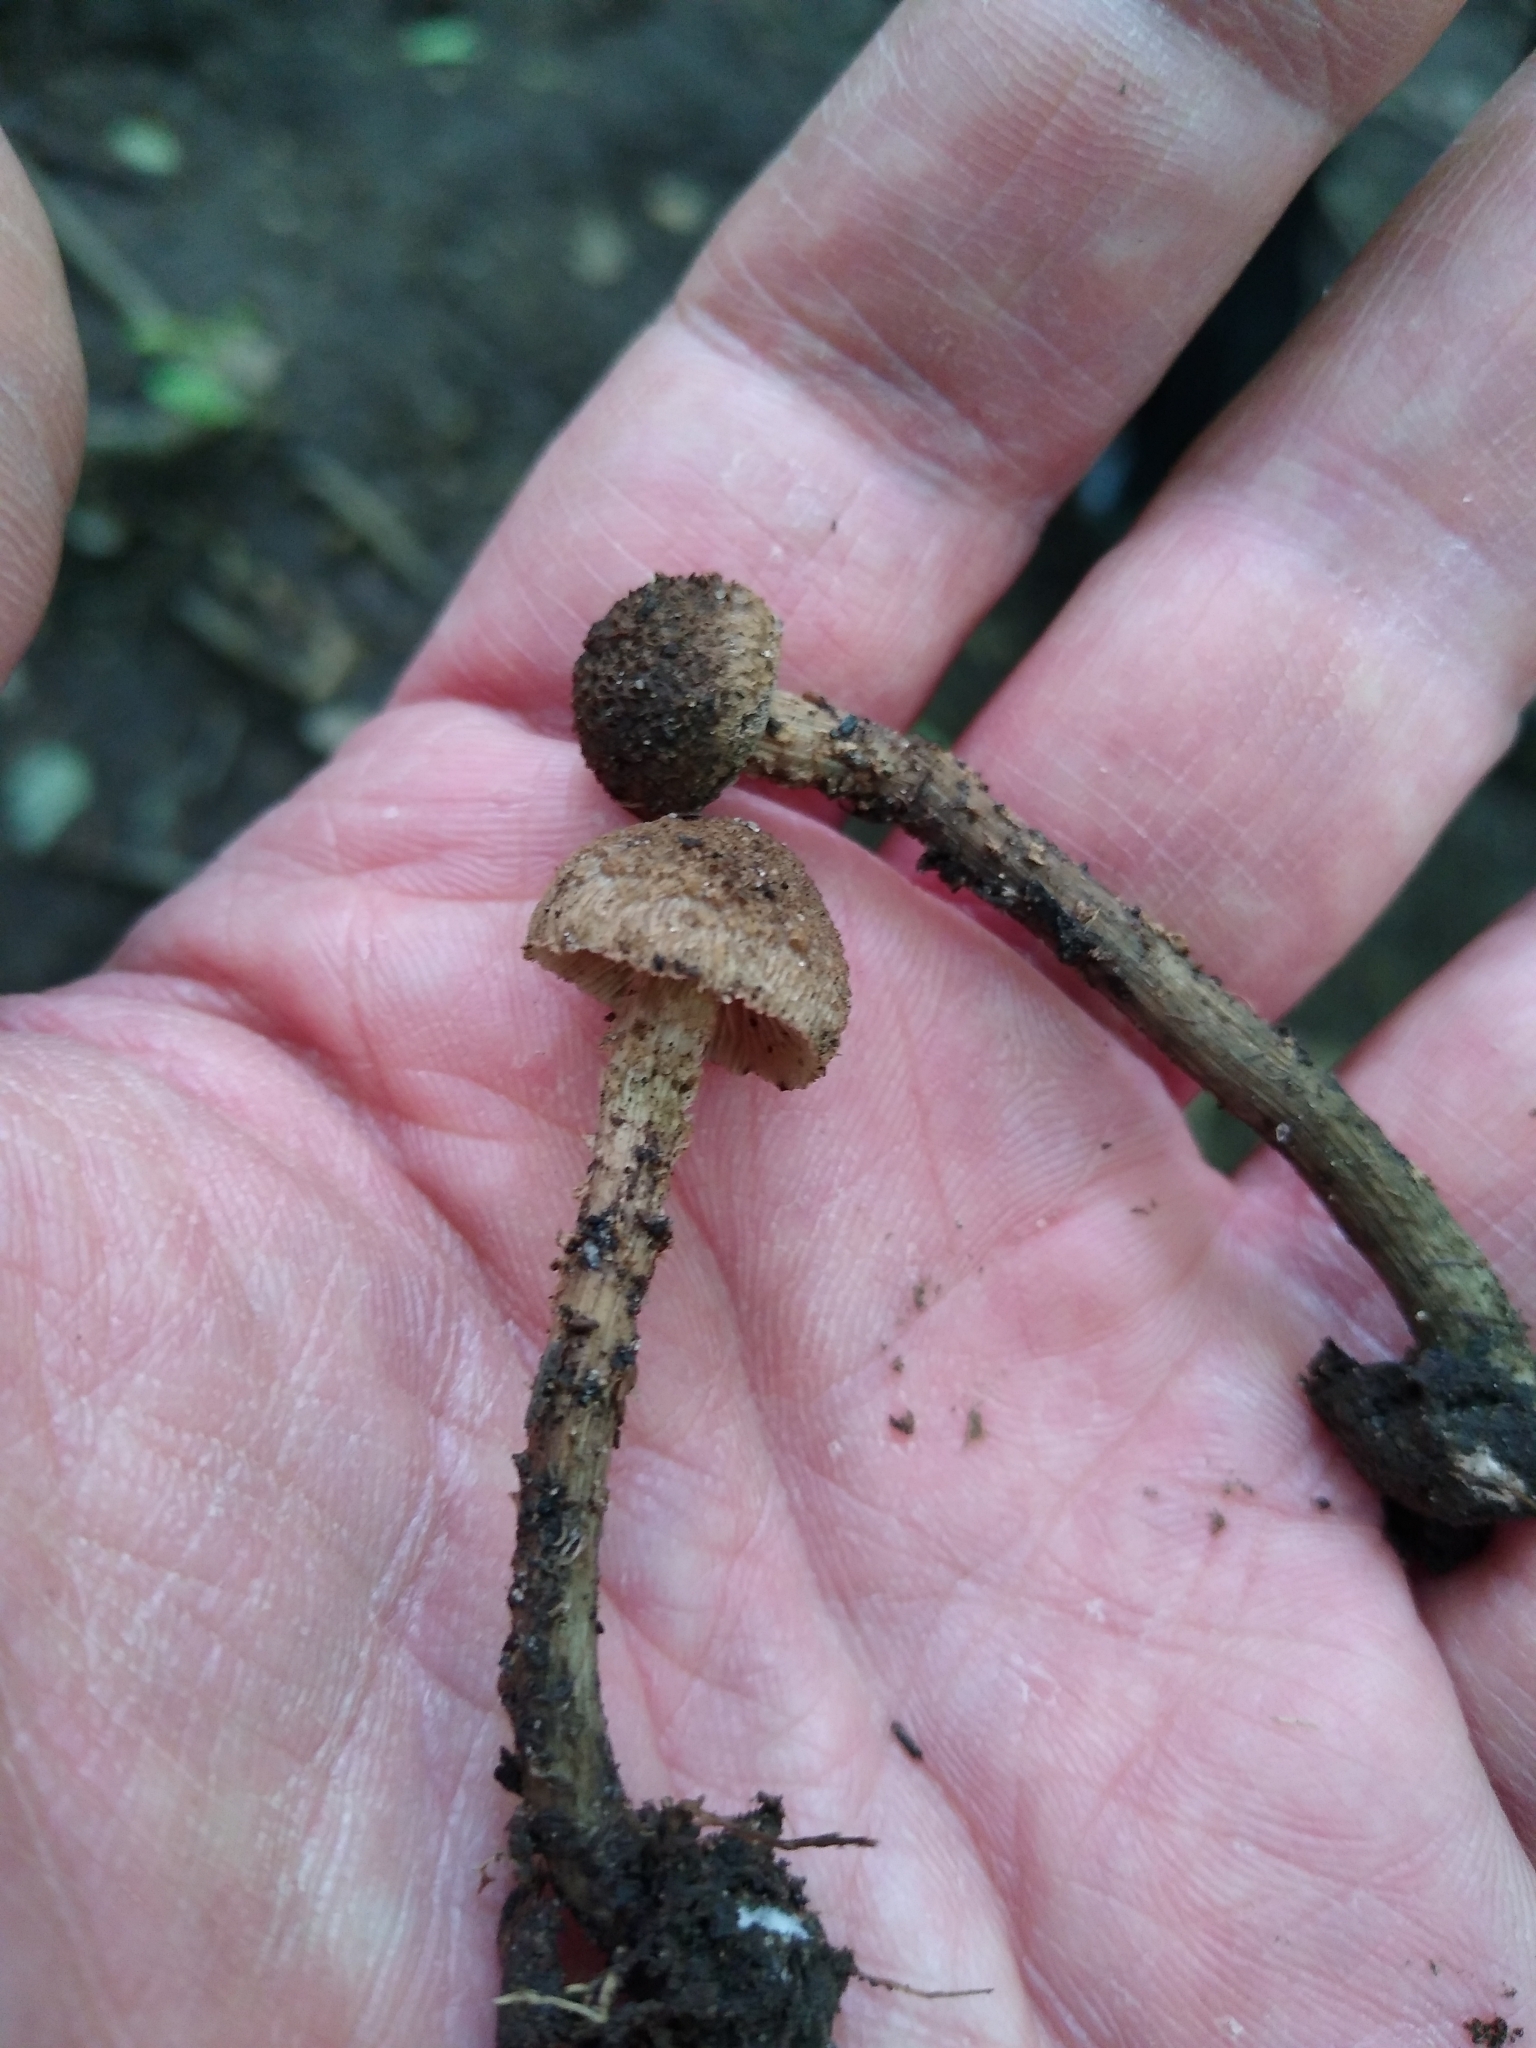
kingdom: Fungi
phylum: Basidiomycota
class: Agaricomycetes
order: Agaricales
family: Inocybaceae
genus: Inosperma
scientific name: Inosperma calamistratum
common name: Greenfoot fibrecap
